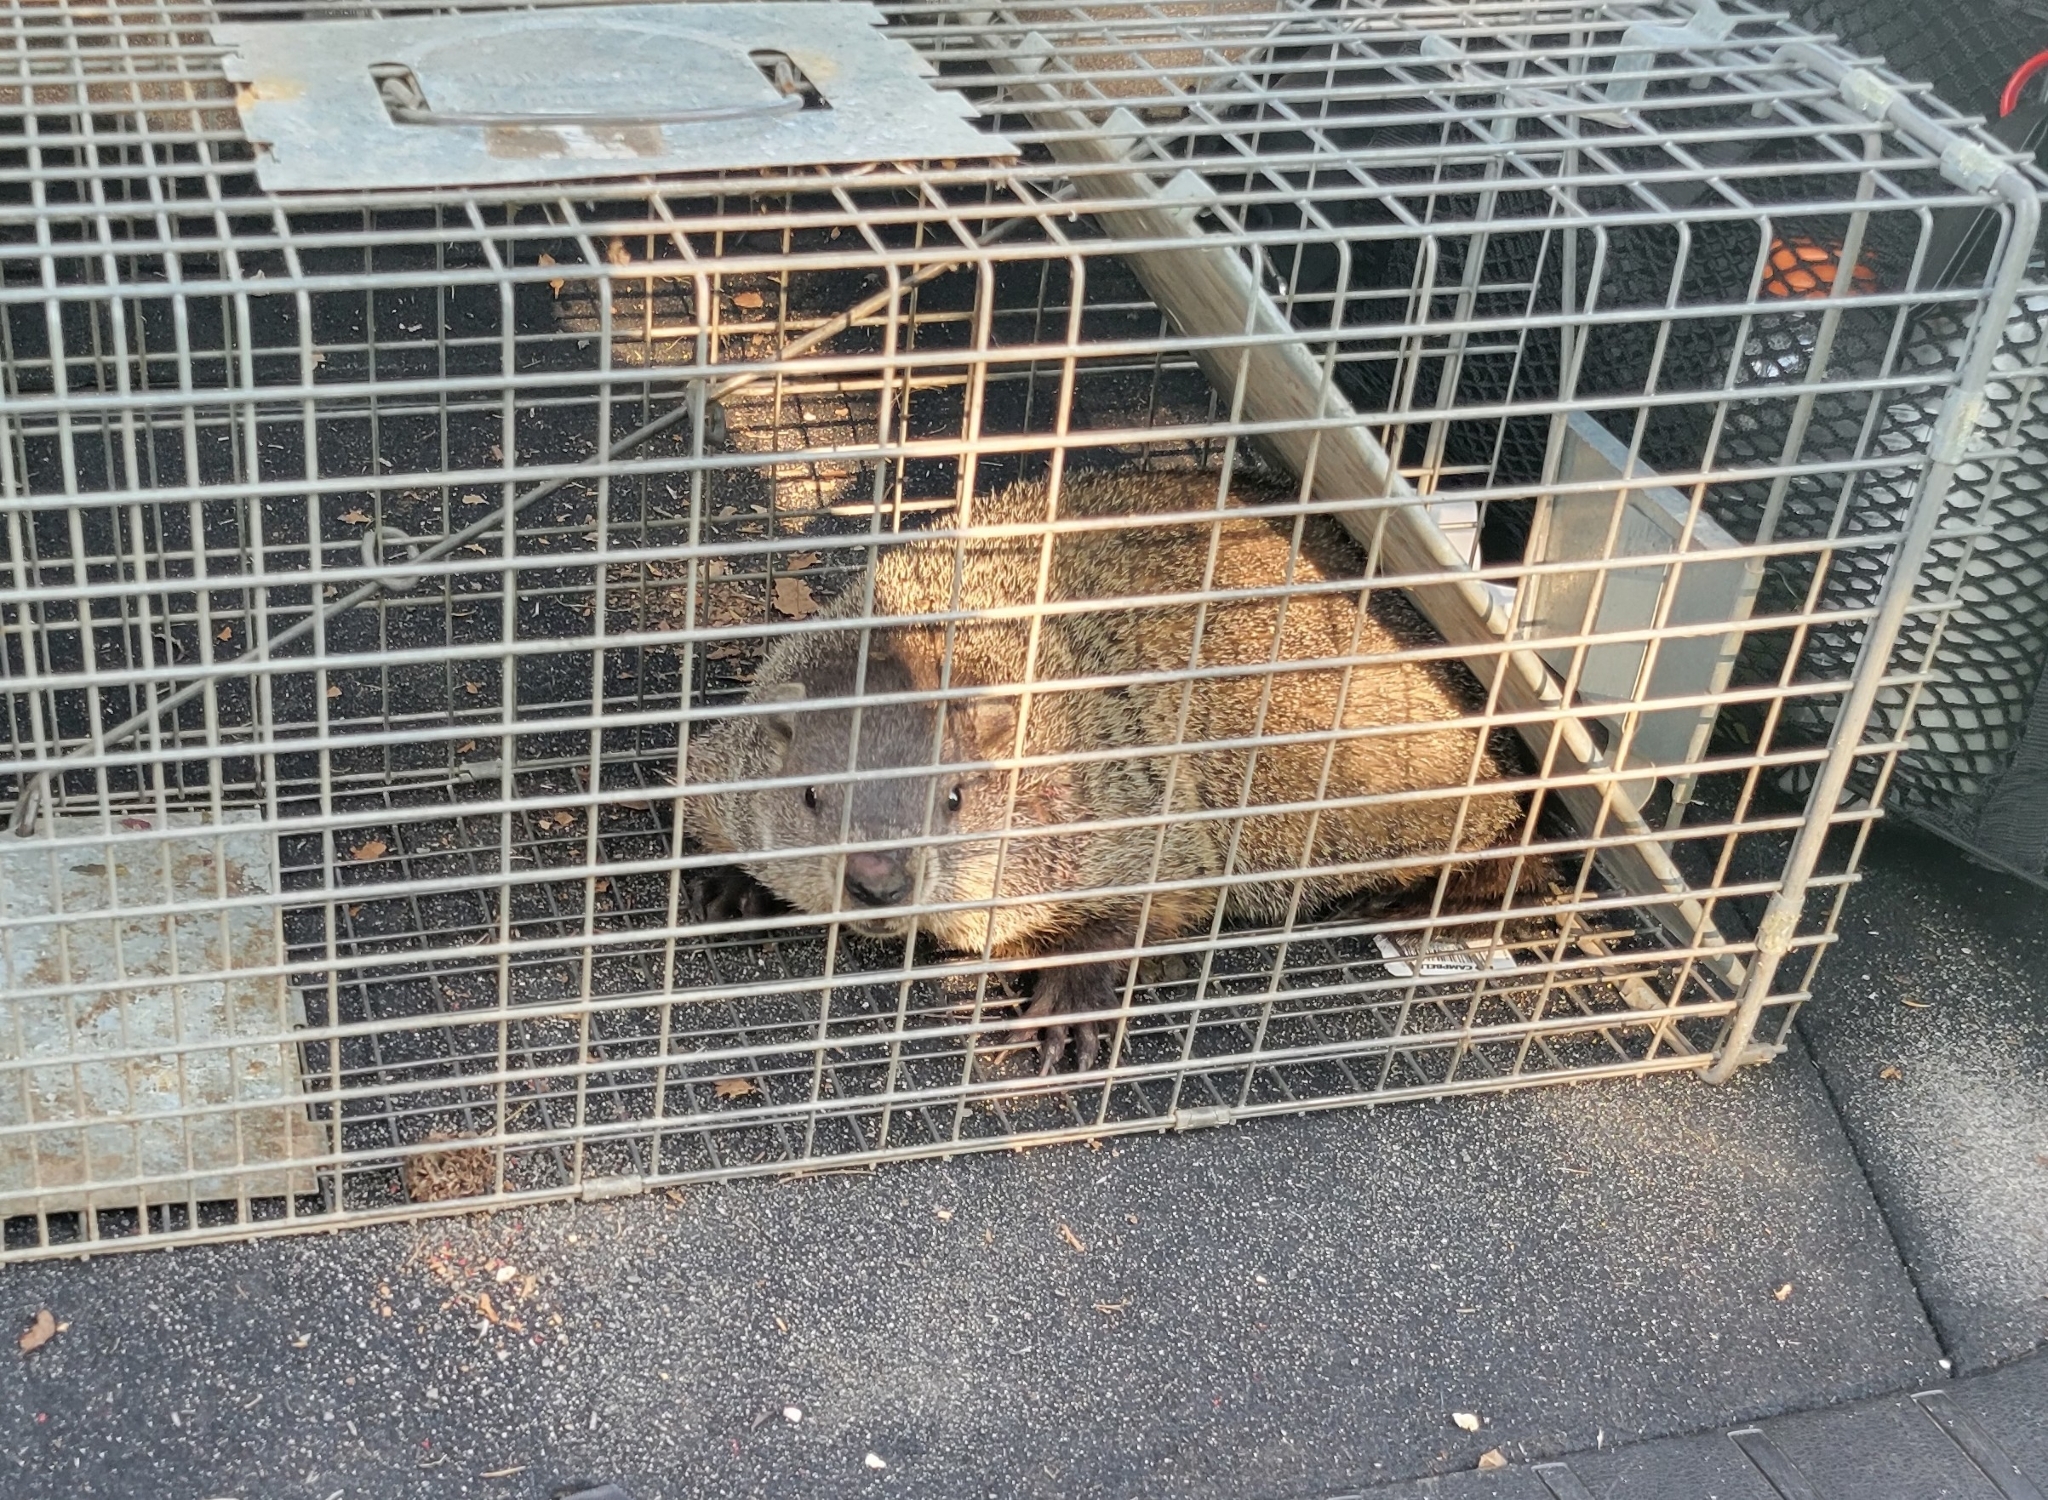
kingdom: Animalia
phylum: Chordata
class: Mammalia
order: Rodentia
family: Sciuridae
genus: Marmota
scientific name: Marmota monax
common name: Groundhog
